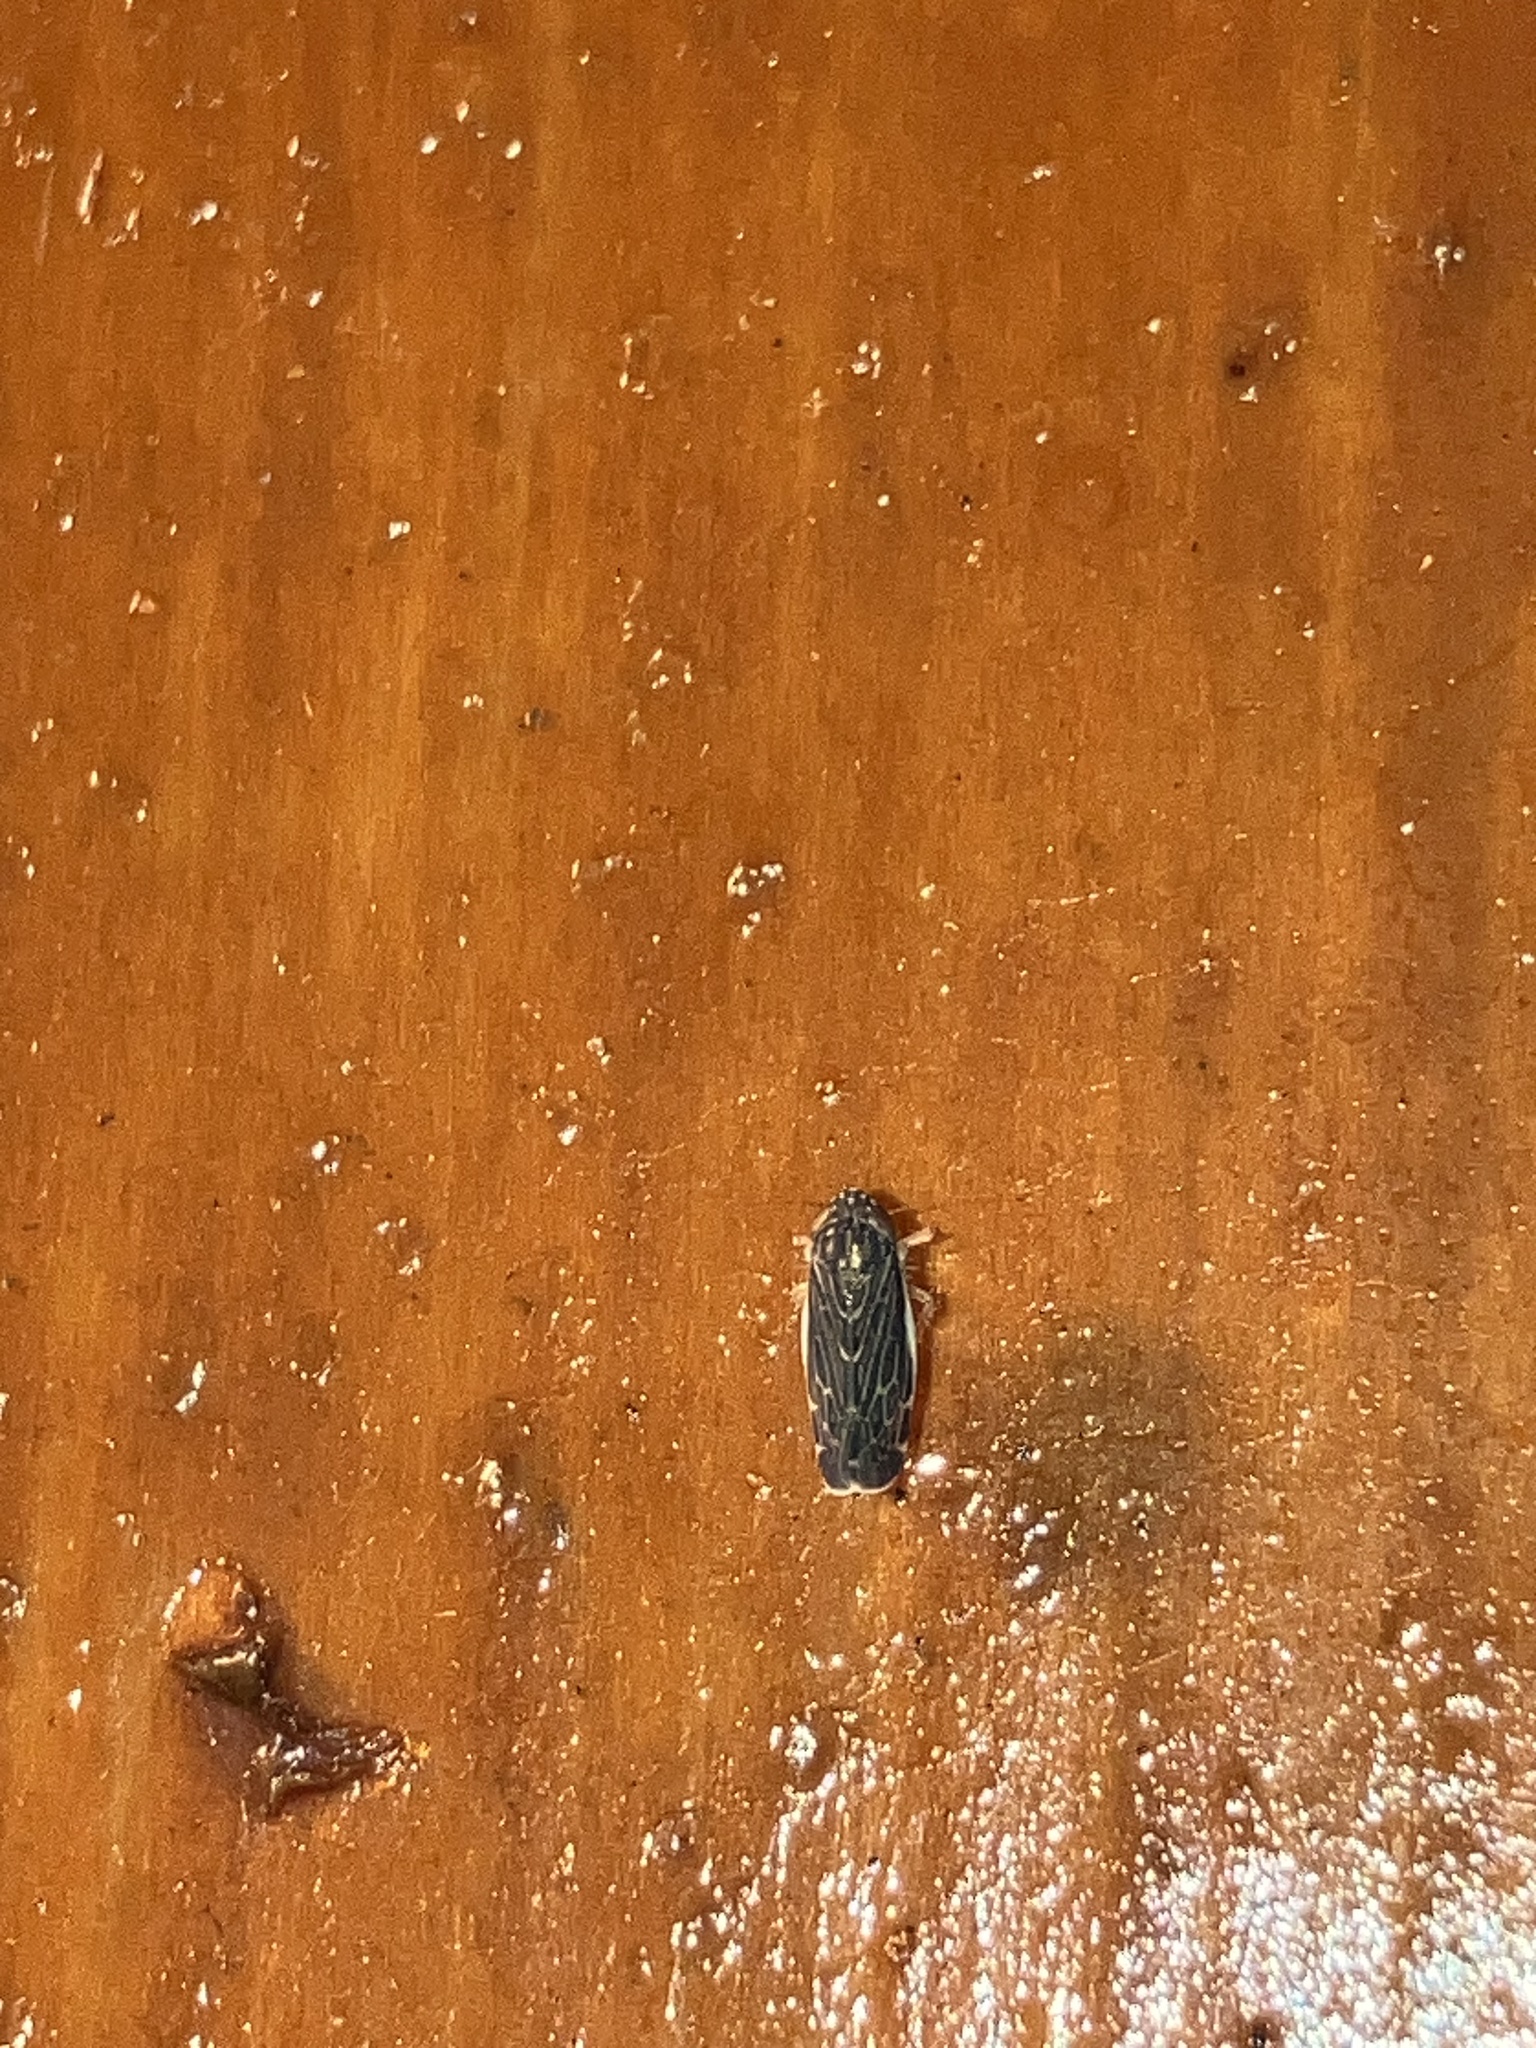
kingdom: Animalia
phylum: Arthropoda
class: Insecta
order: Hemiptera
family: Cicadellidae
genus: Planicephalus
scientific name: Planicephalus
